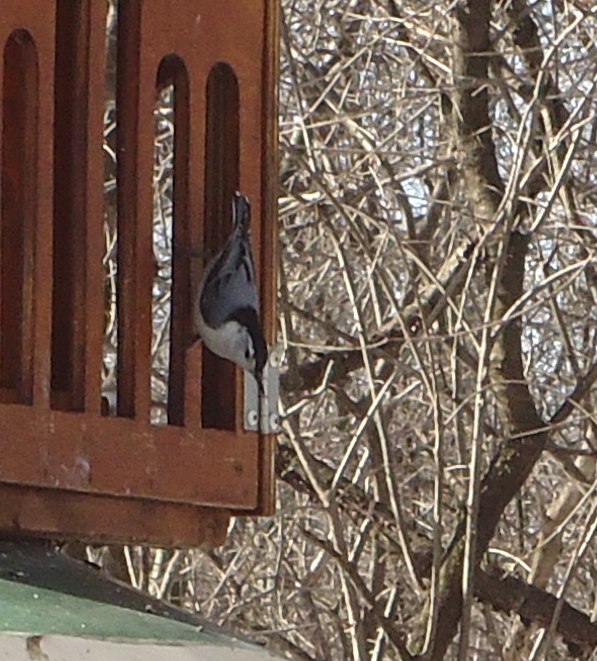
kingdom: Animalia
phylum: Chordata
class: Aves
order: Passeriformes
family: Sittidae
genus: Sitta
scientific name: Sitta carolinensis
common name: White-breasted nuthatch
